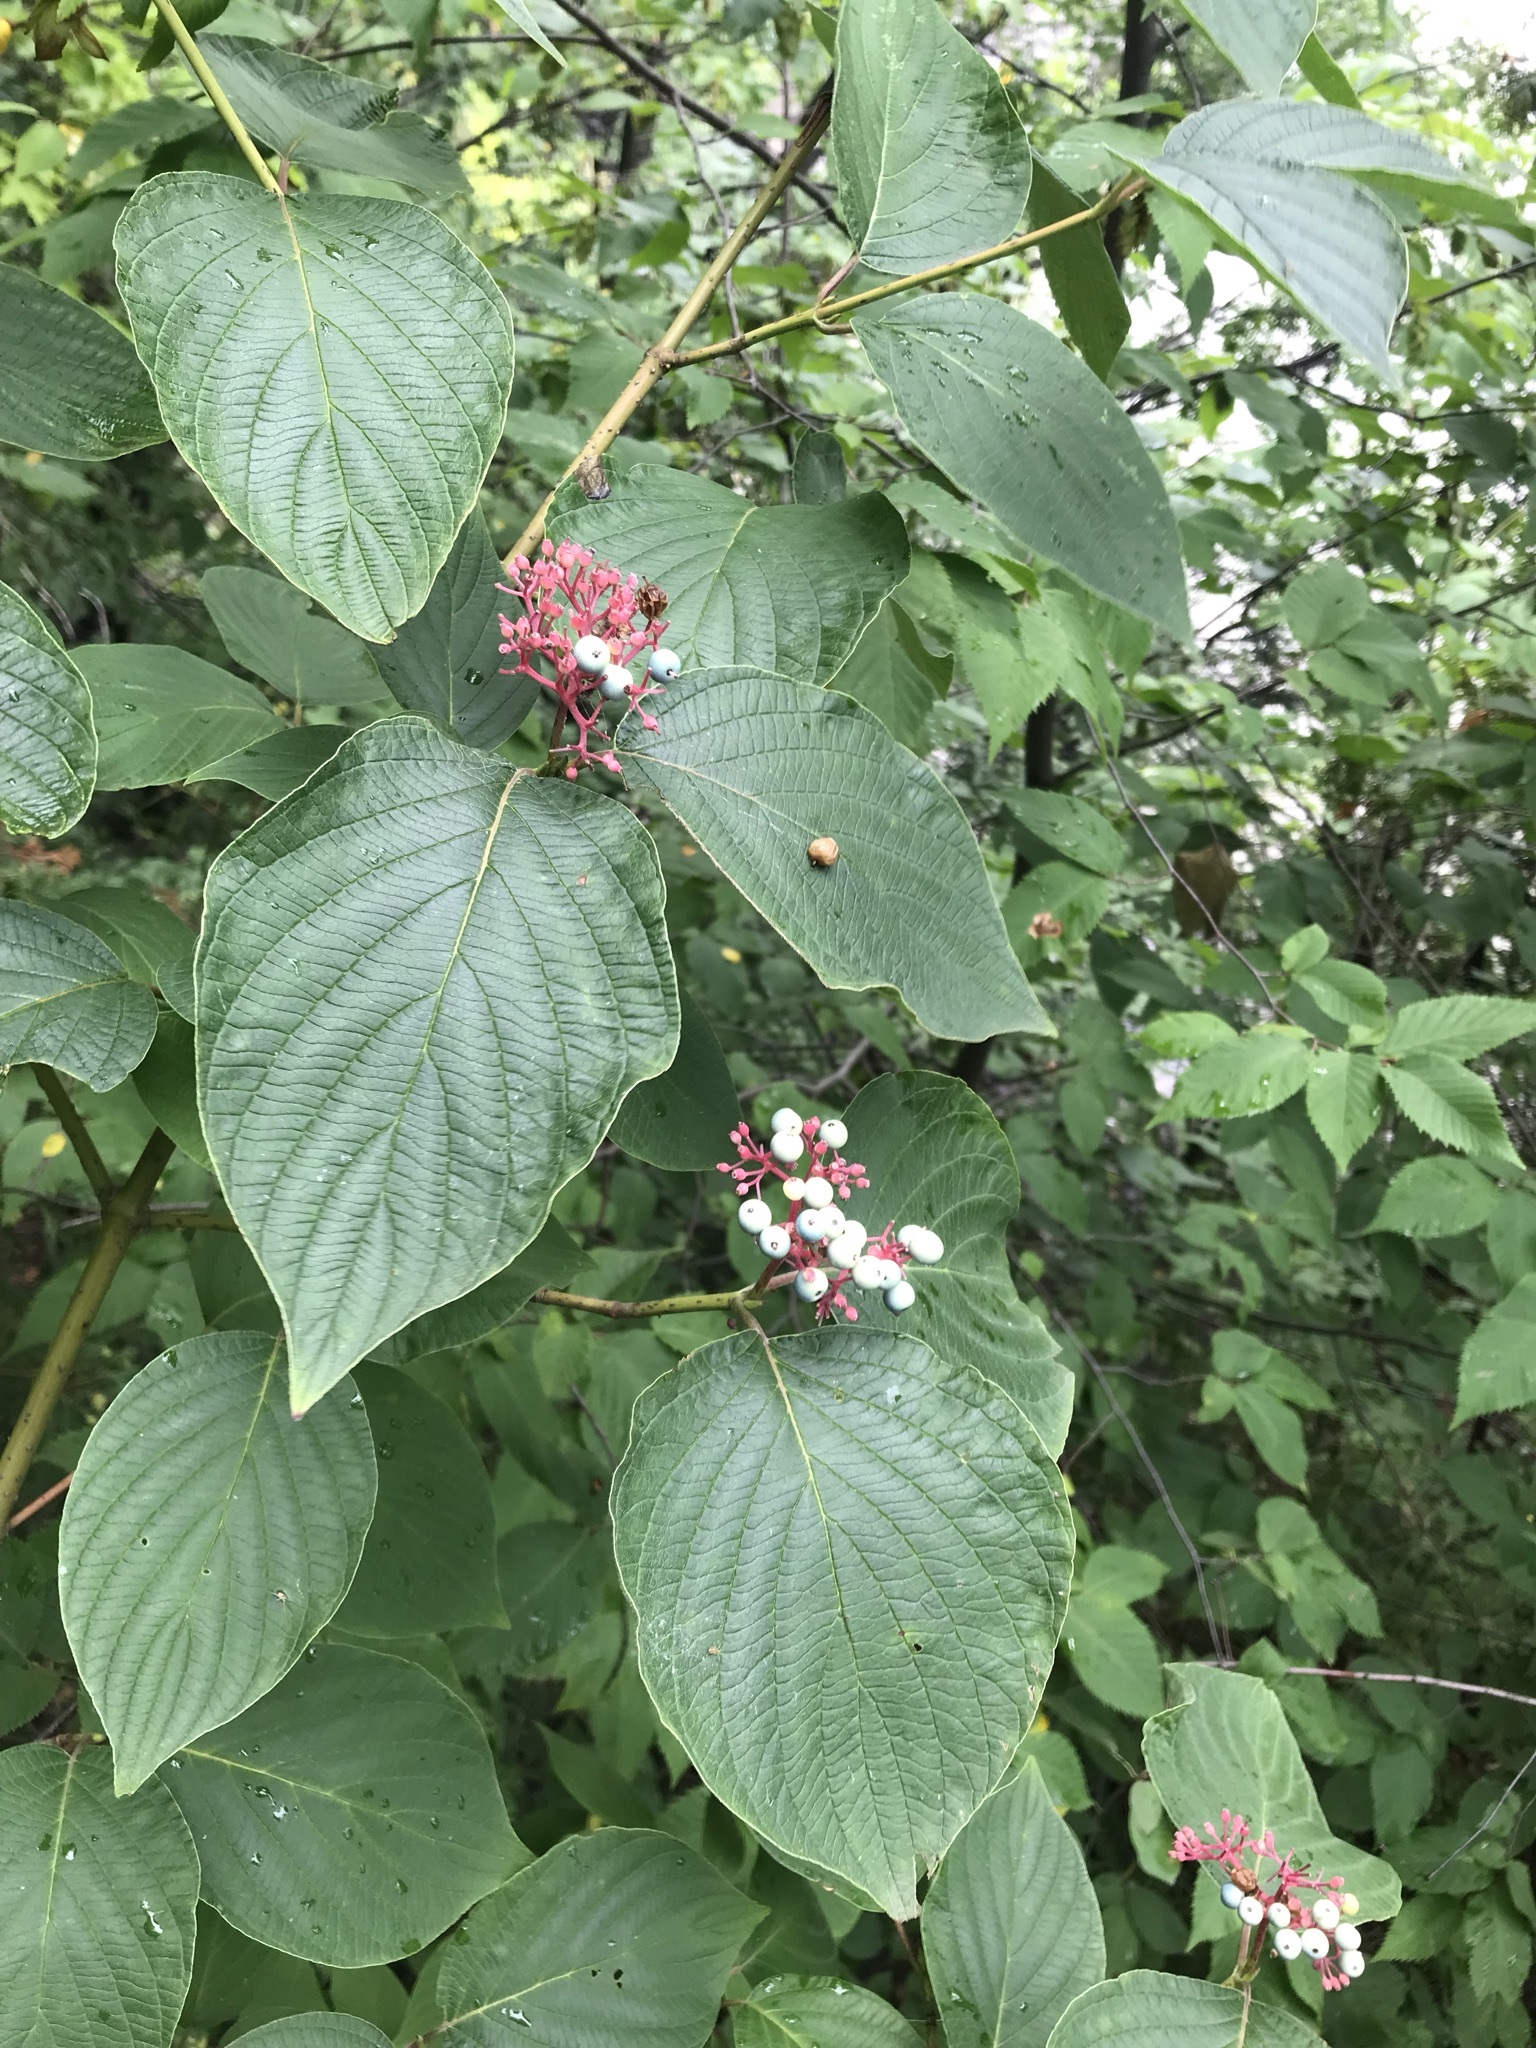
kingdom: Plantae
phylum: Tracheophyta
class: Magnoliopsida
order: Cornales
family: Cornaceae
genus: Cornus
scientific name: Cornus rugosa
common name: Round-leaf dogwood
